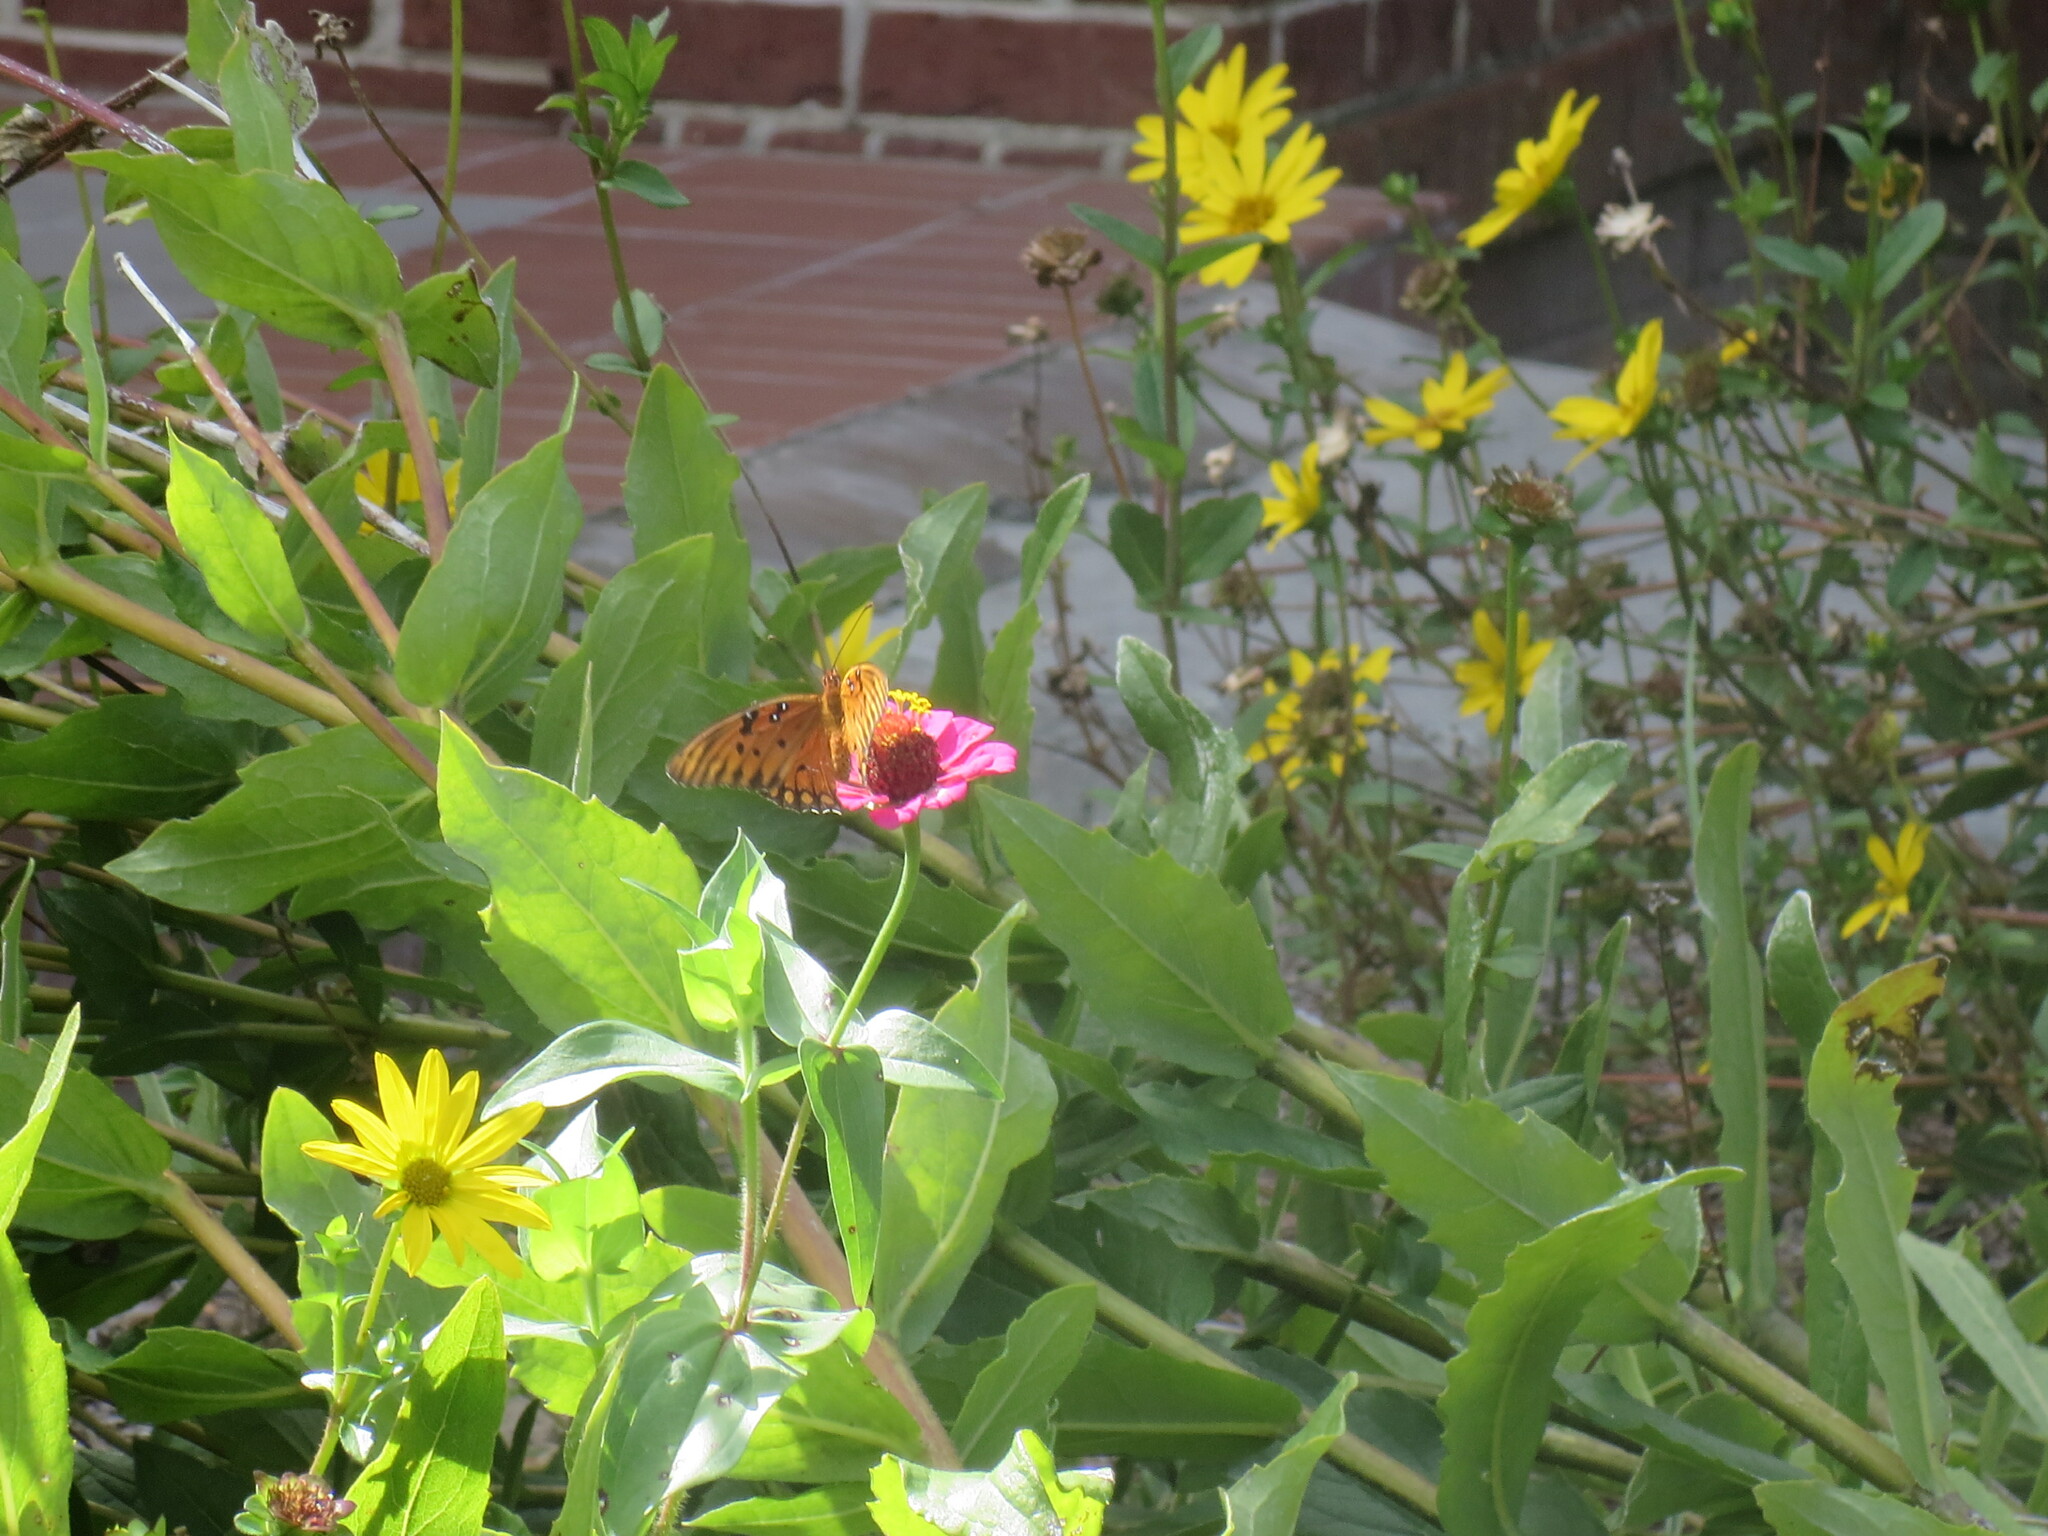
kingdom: Animalia
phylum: Arthropoda
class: Insecta
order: Lepidoptera
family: Nymphalidae
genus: Dione
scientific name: Dione vanillae
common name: Gulf fritillary
